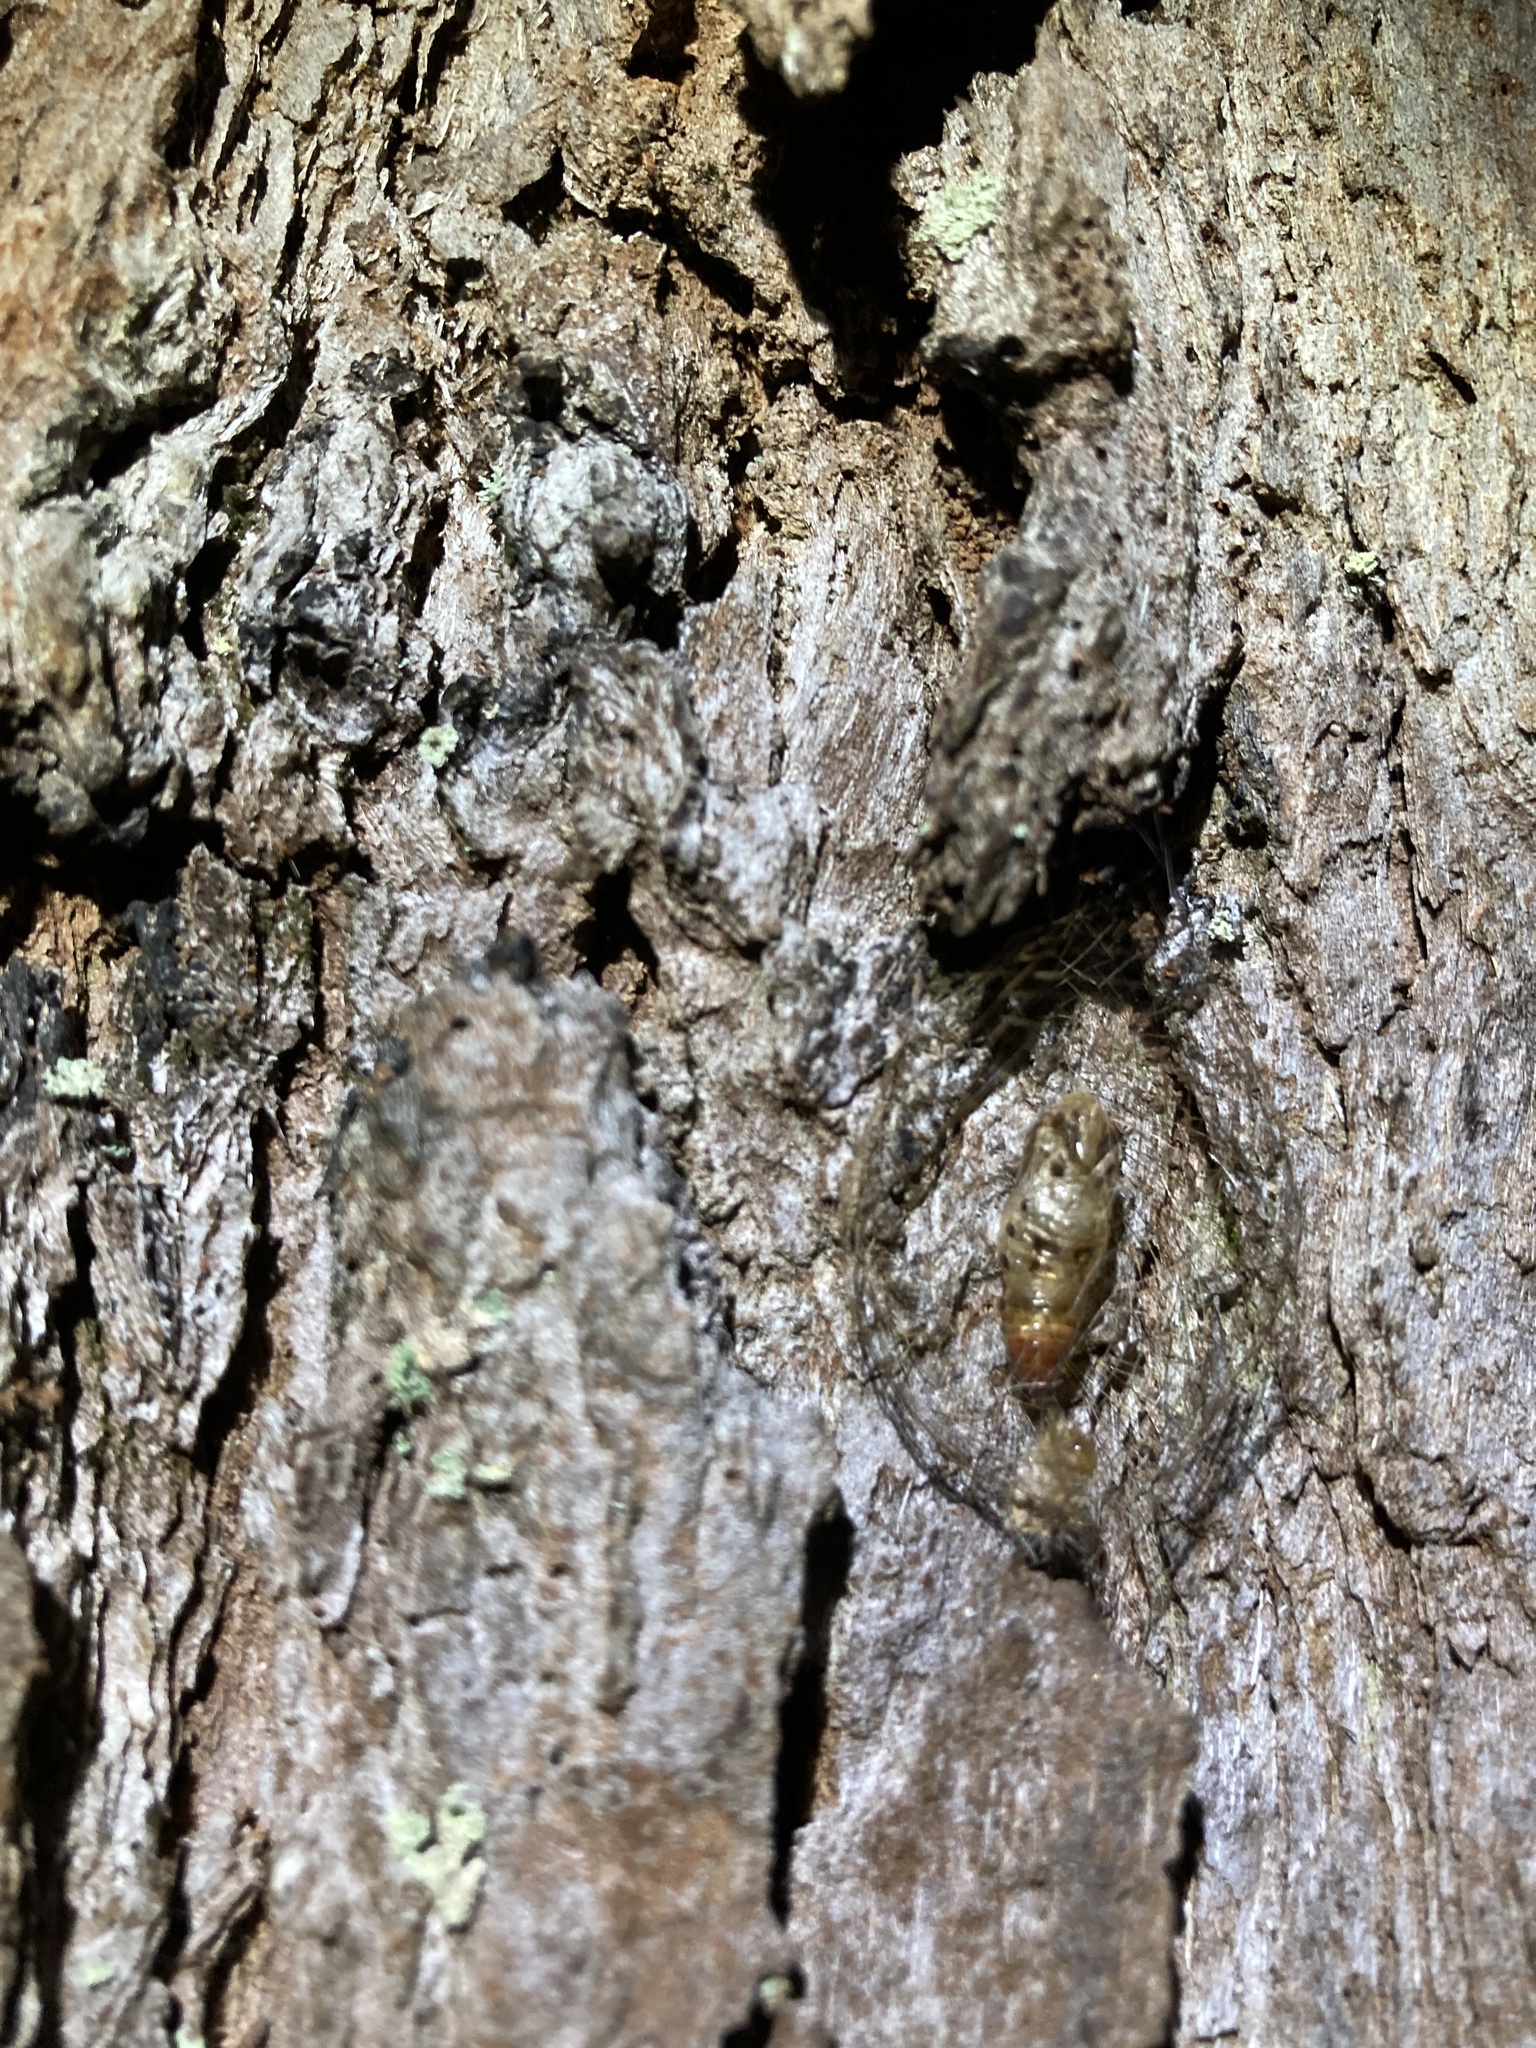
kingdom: Animalia
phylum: Arthropoda
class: Insecta
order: Lepidoptera
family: Erebidae
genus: Cyana
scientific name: Cyana meyricki
